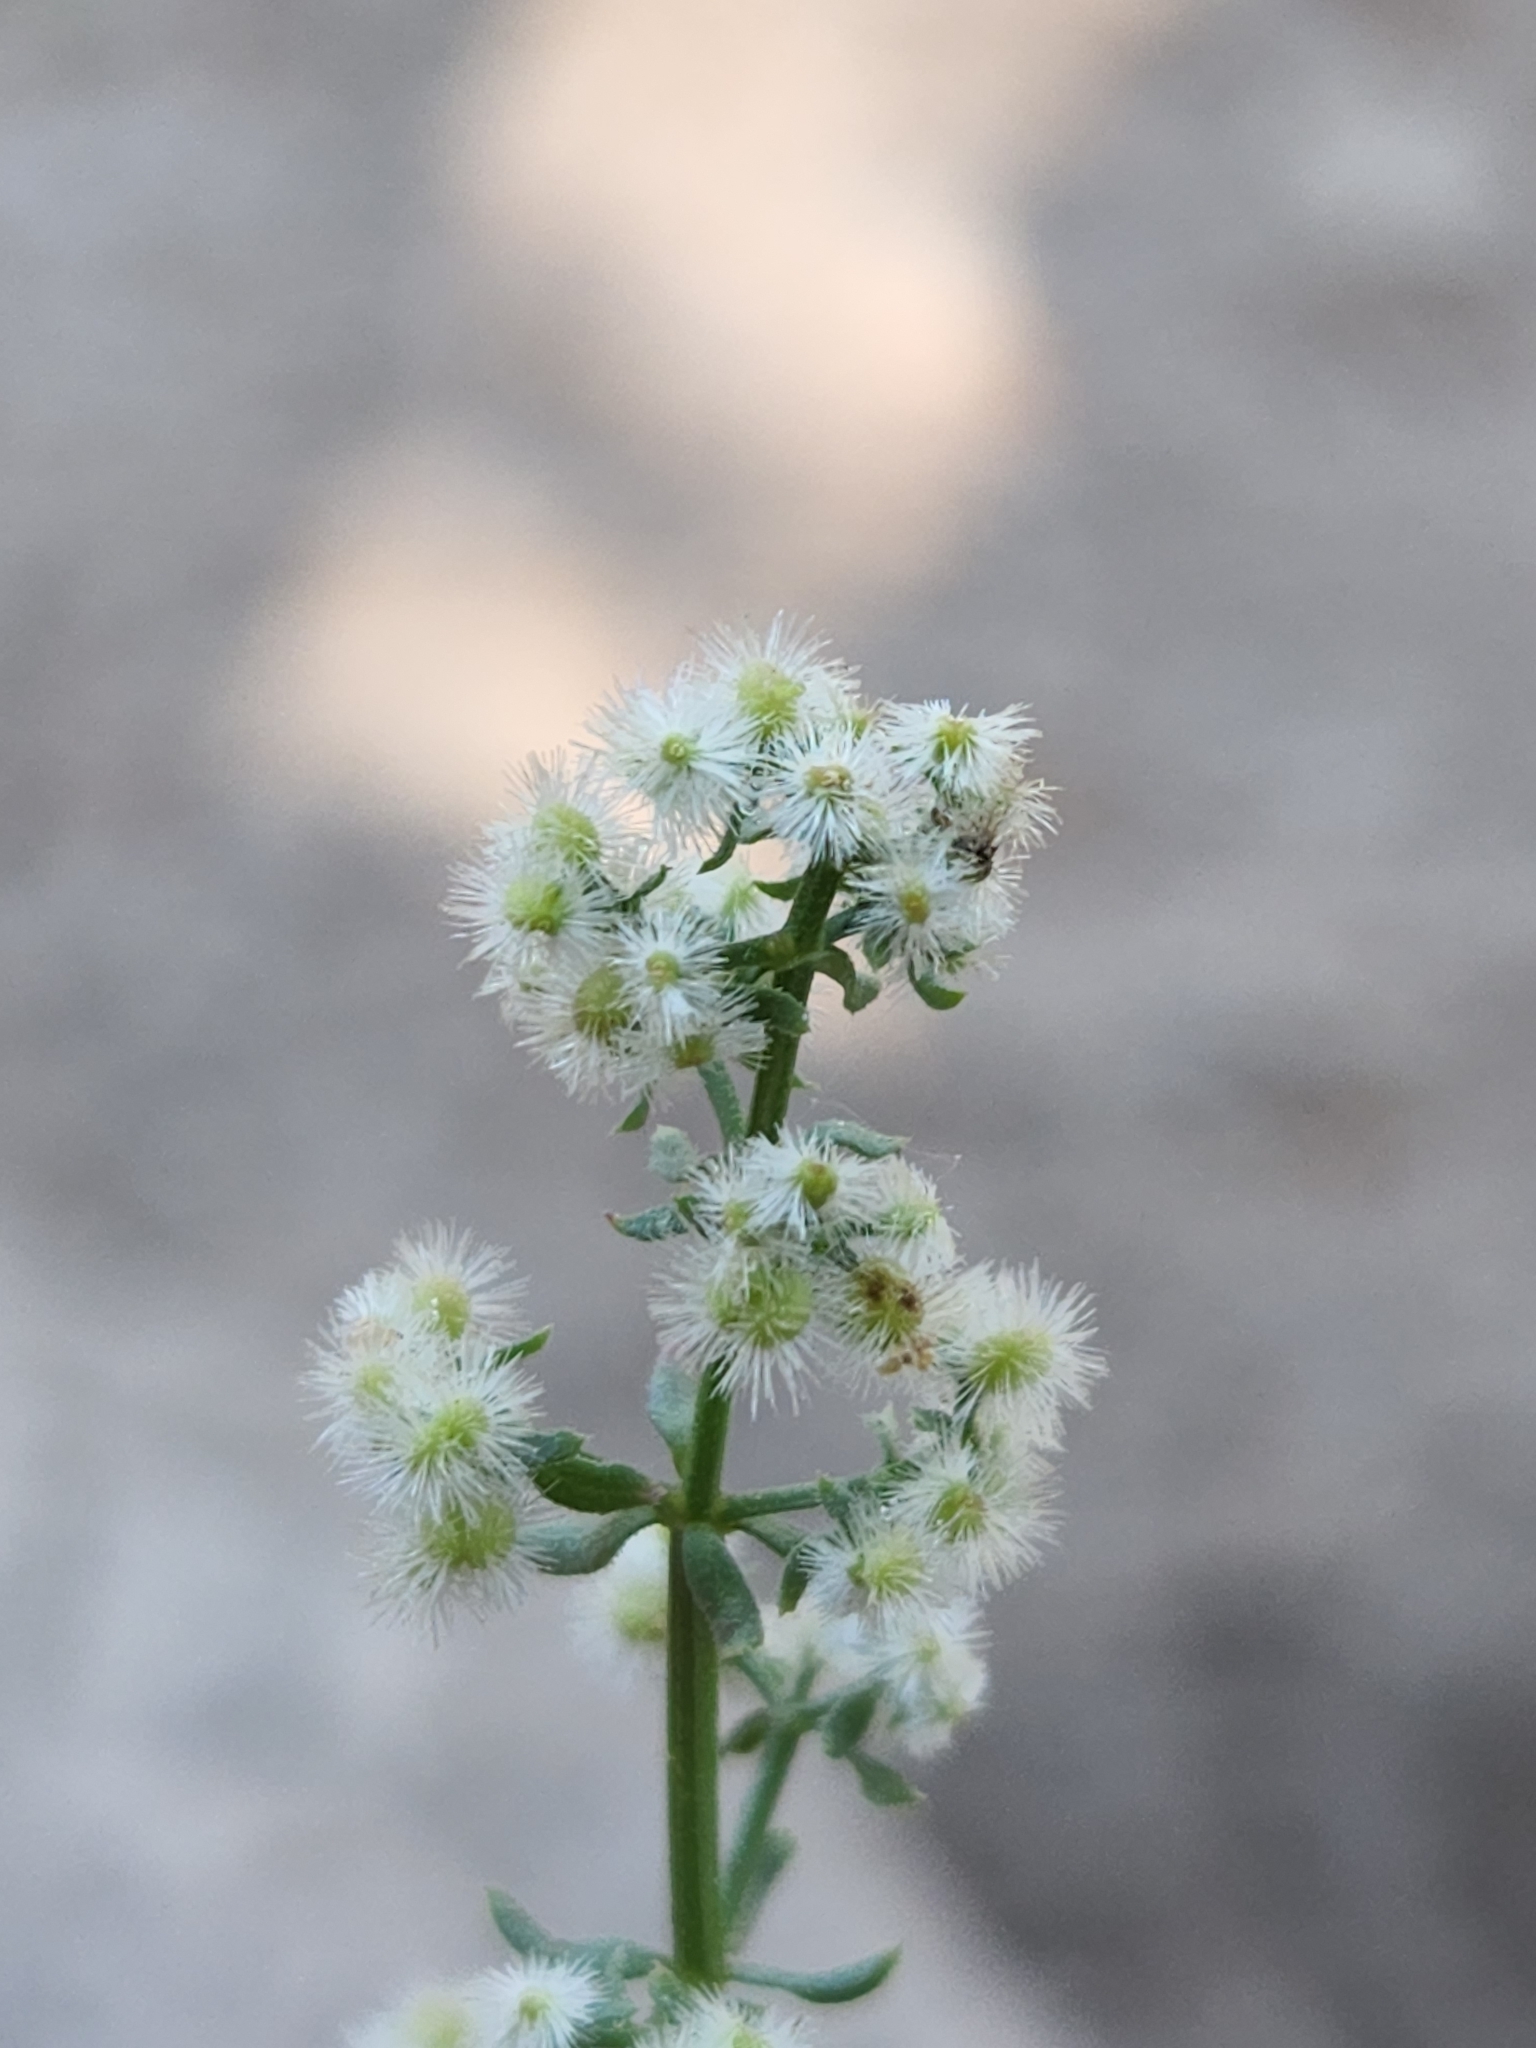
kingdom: Plantae
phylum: Tracheophyta
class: Magnoliopsida
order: Gentianales
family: Rubiaceae
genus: Galium
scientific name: Galium angustifolium
